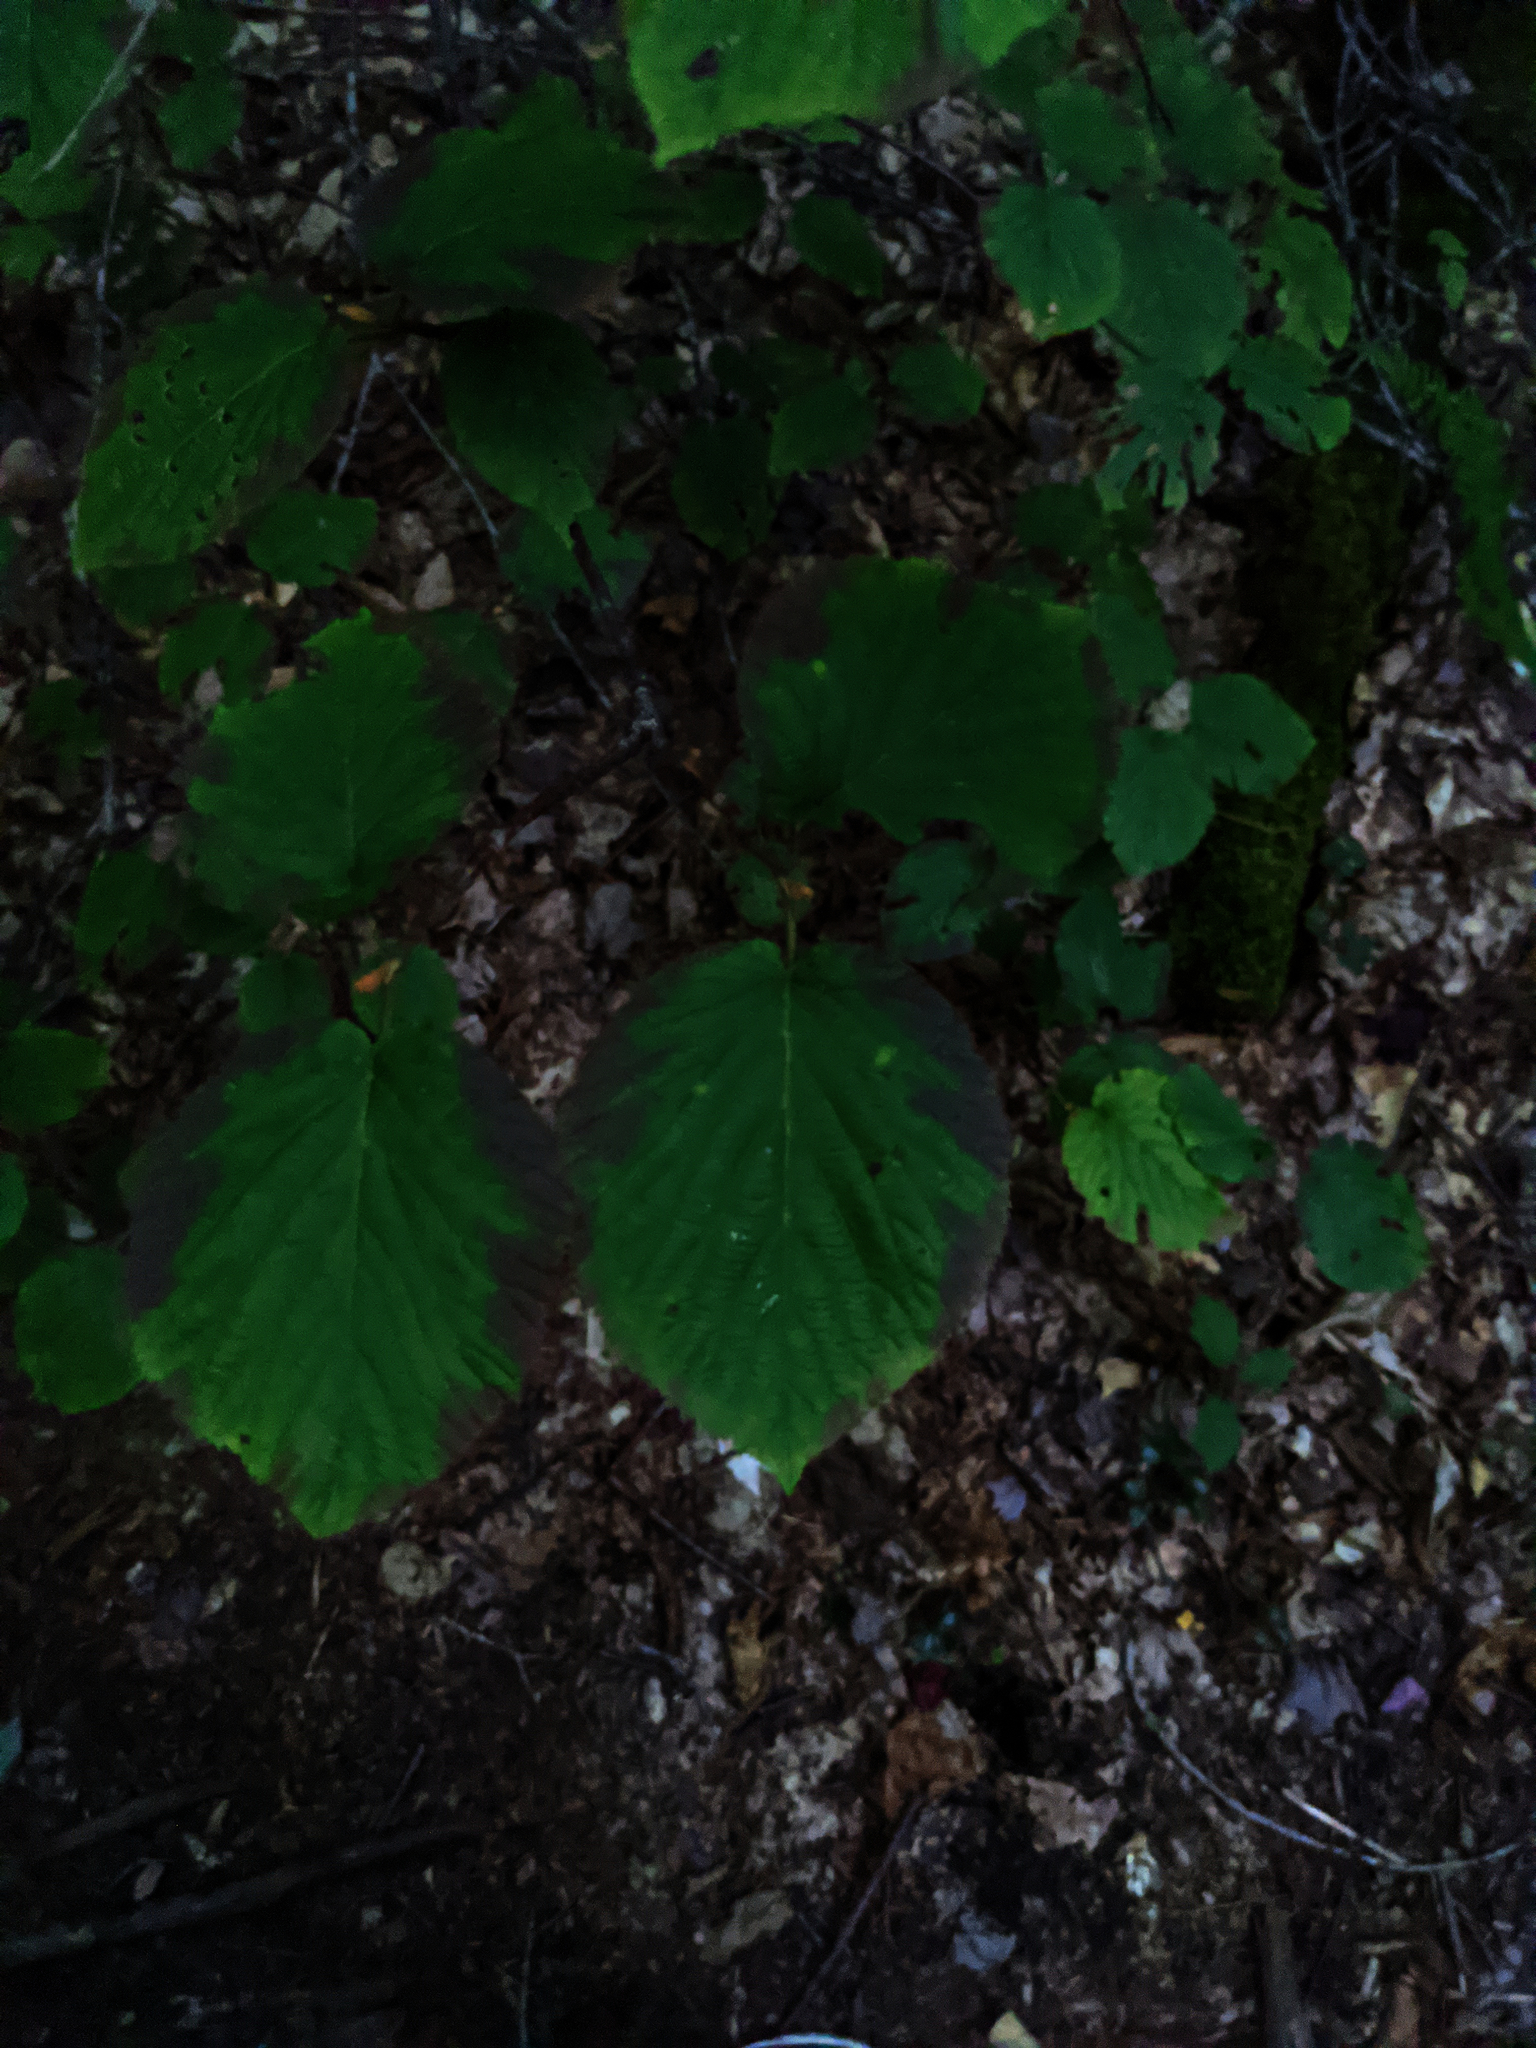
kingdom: Plantae
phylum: Tracheophyta
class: Magnoliopsida
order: Dipsacales
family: Viburnaceae
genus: Viburnum
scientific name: Viburnum lantanoides
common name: Hobblebush
